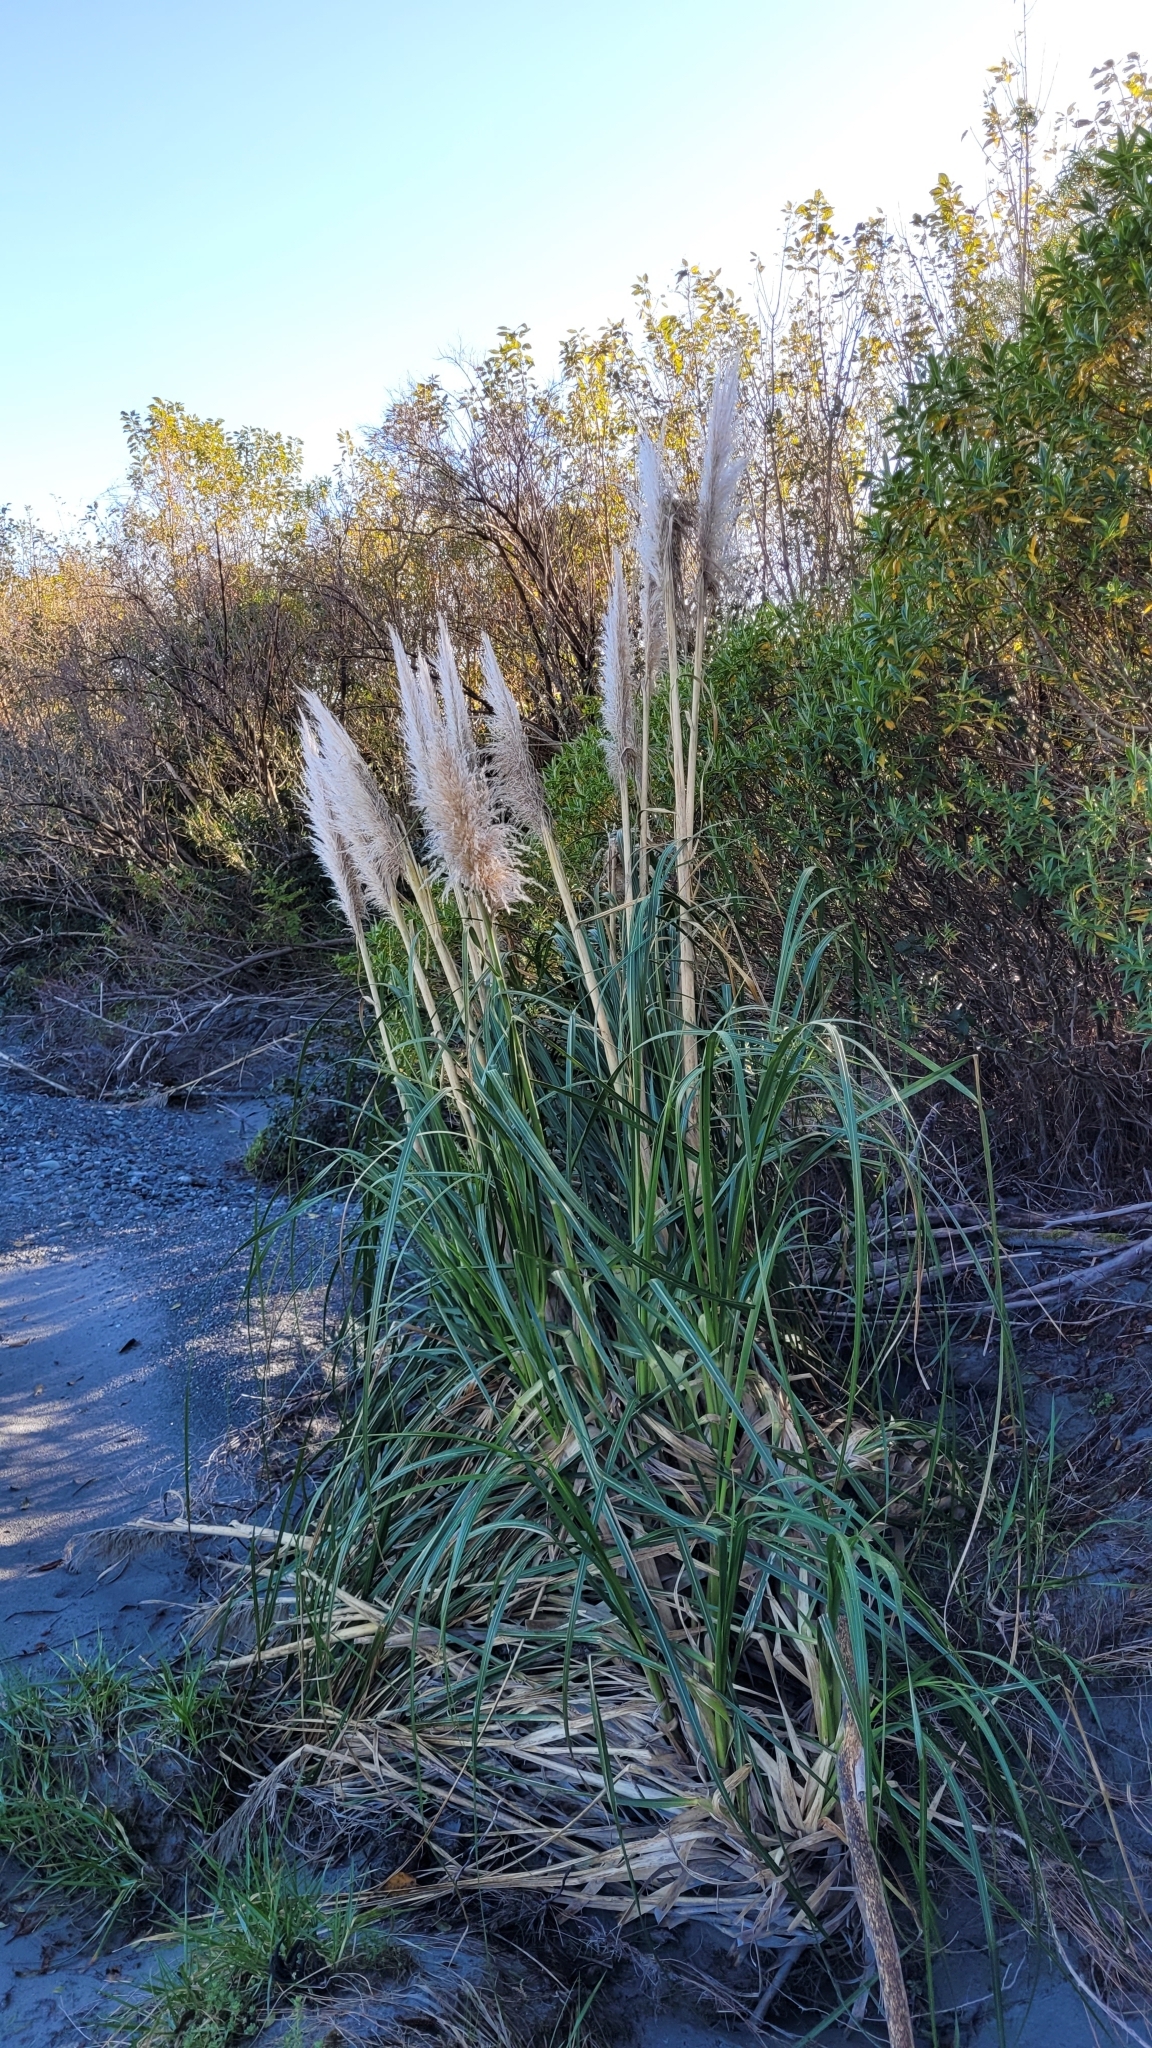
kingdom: Plantae
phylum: Tracheophyta
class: Liliopsida
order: Poales
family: Poaceae
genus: Cortaderia
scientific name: Cortaderia jubata
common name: Purple pampas grass
